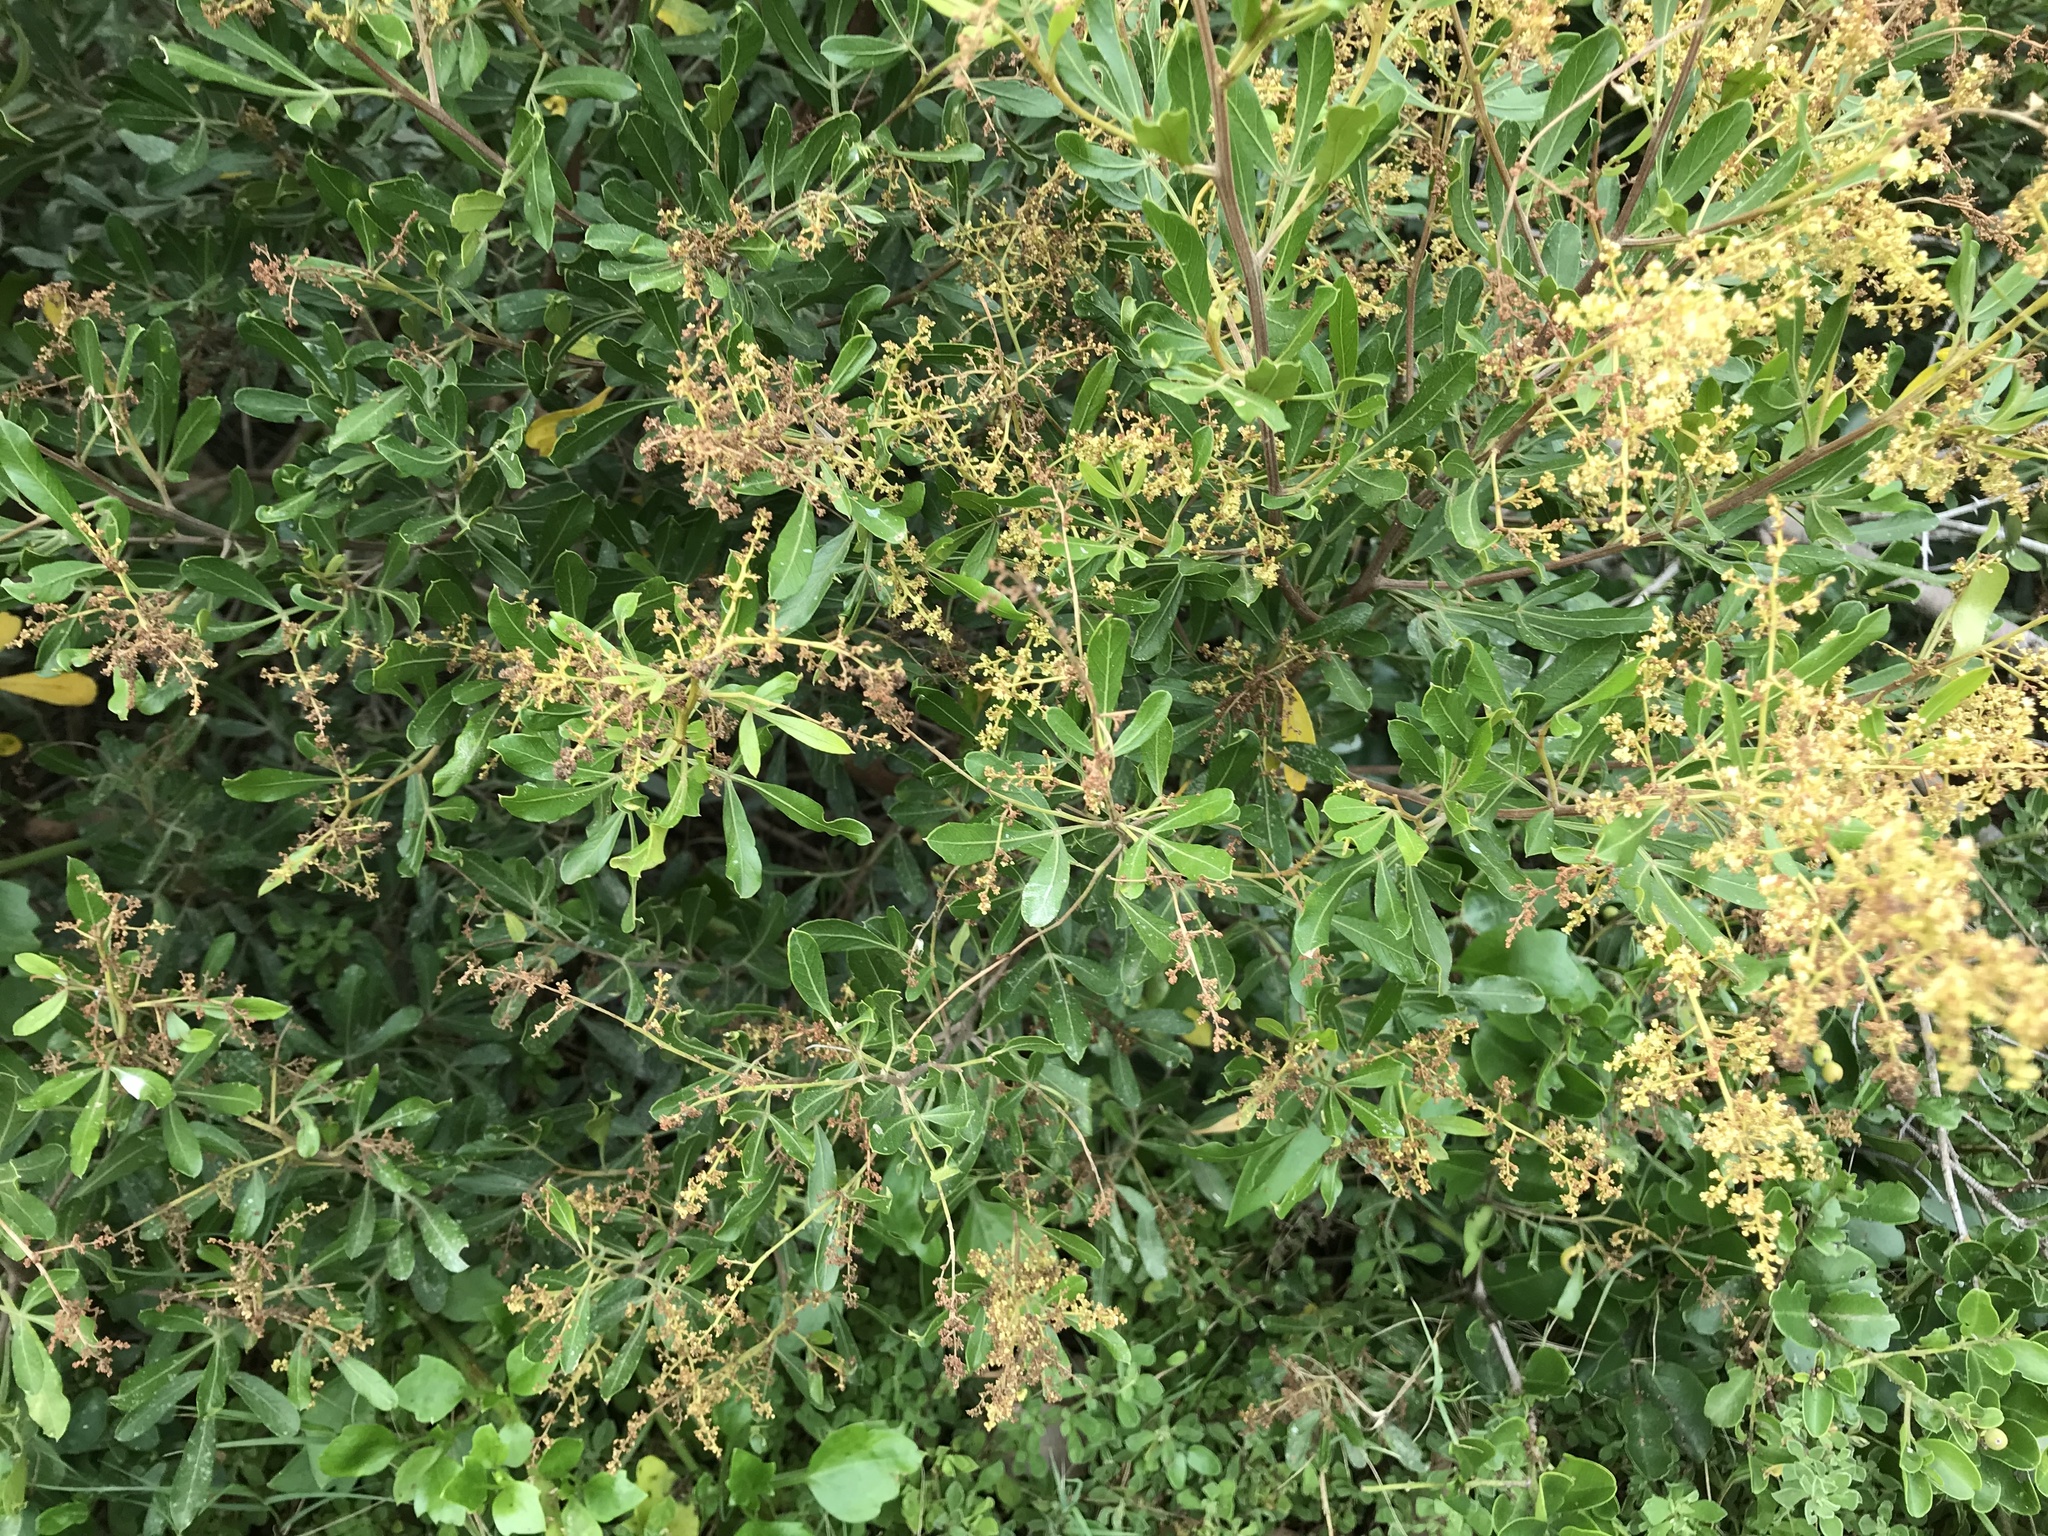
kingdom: Plantae
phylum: Tracheophyta
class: Magnoliopsida
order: Sapindales
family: Anacardiaceae
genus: Searsia
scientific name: Searsia pallens
